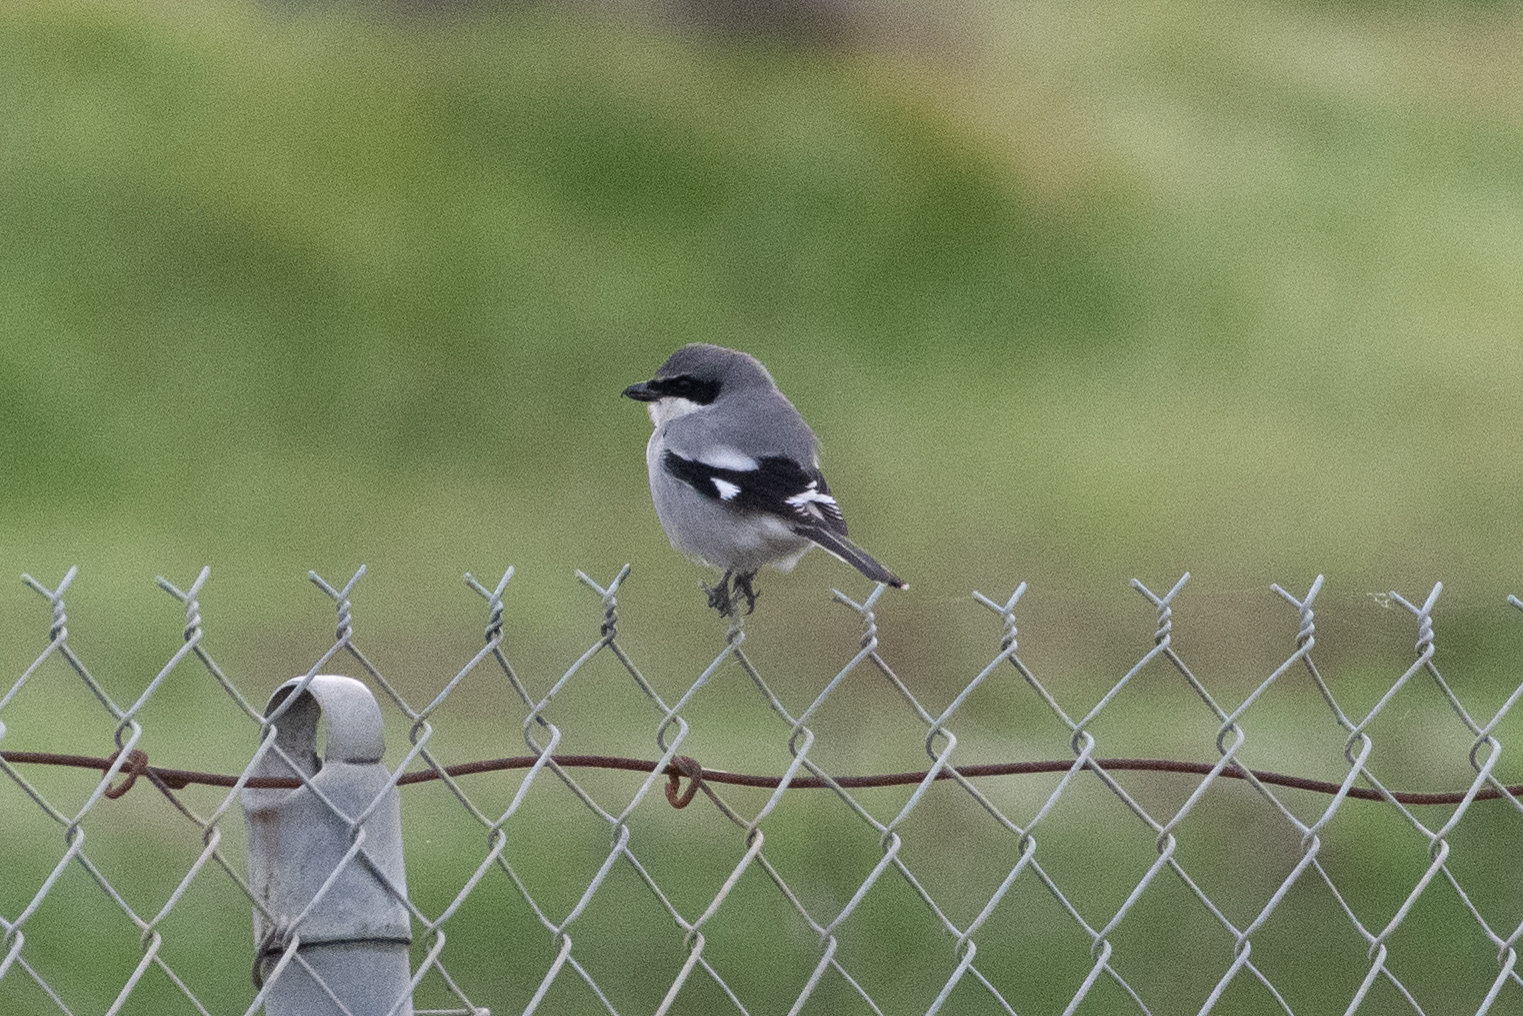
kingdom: Animalia
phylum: Chordata
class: Aves
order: Passeriformes
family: Laniidae
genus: Lanius
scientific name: Lanius ludovicianus
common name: Loggerhead shrike
